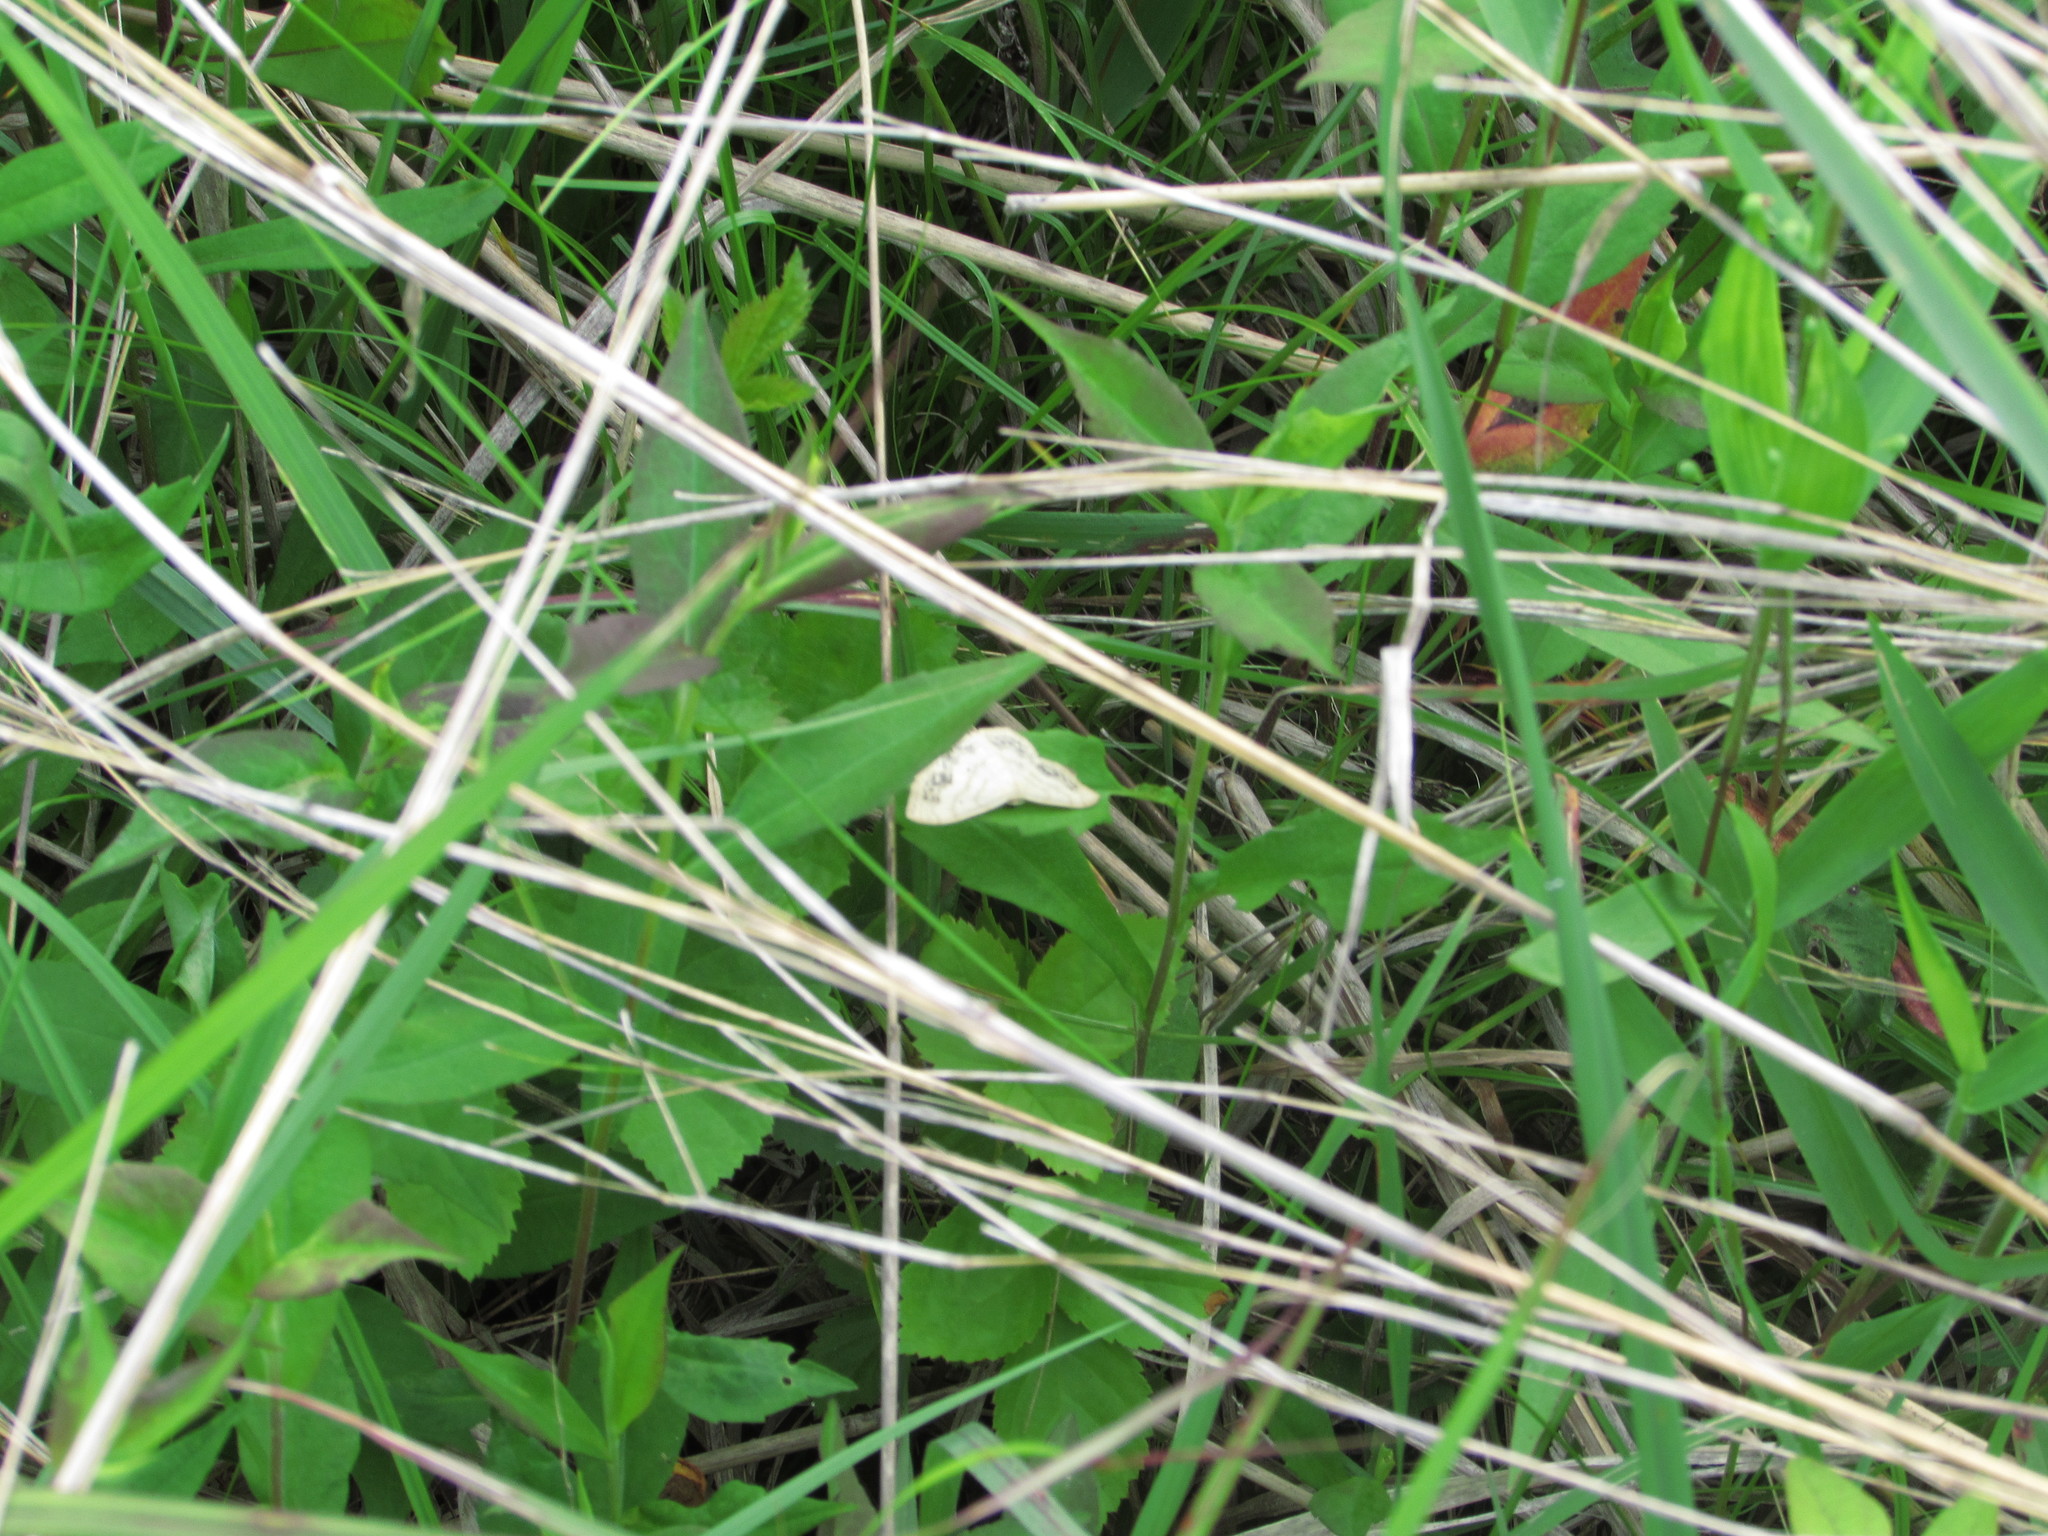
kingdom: Animalia
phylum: Arthropoda
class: Insecta
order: Lepidoptera
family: Geometridae
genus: Scopula
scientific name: Scopula limboundata
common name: Large lace border
